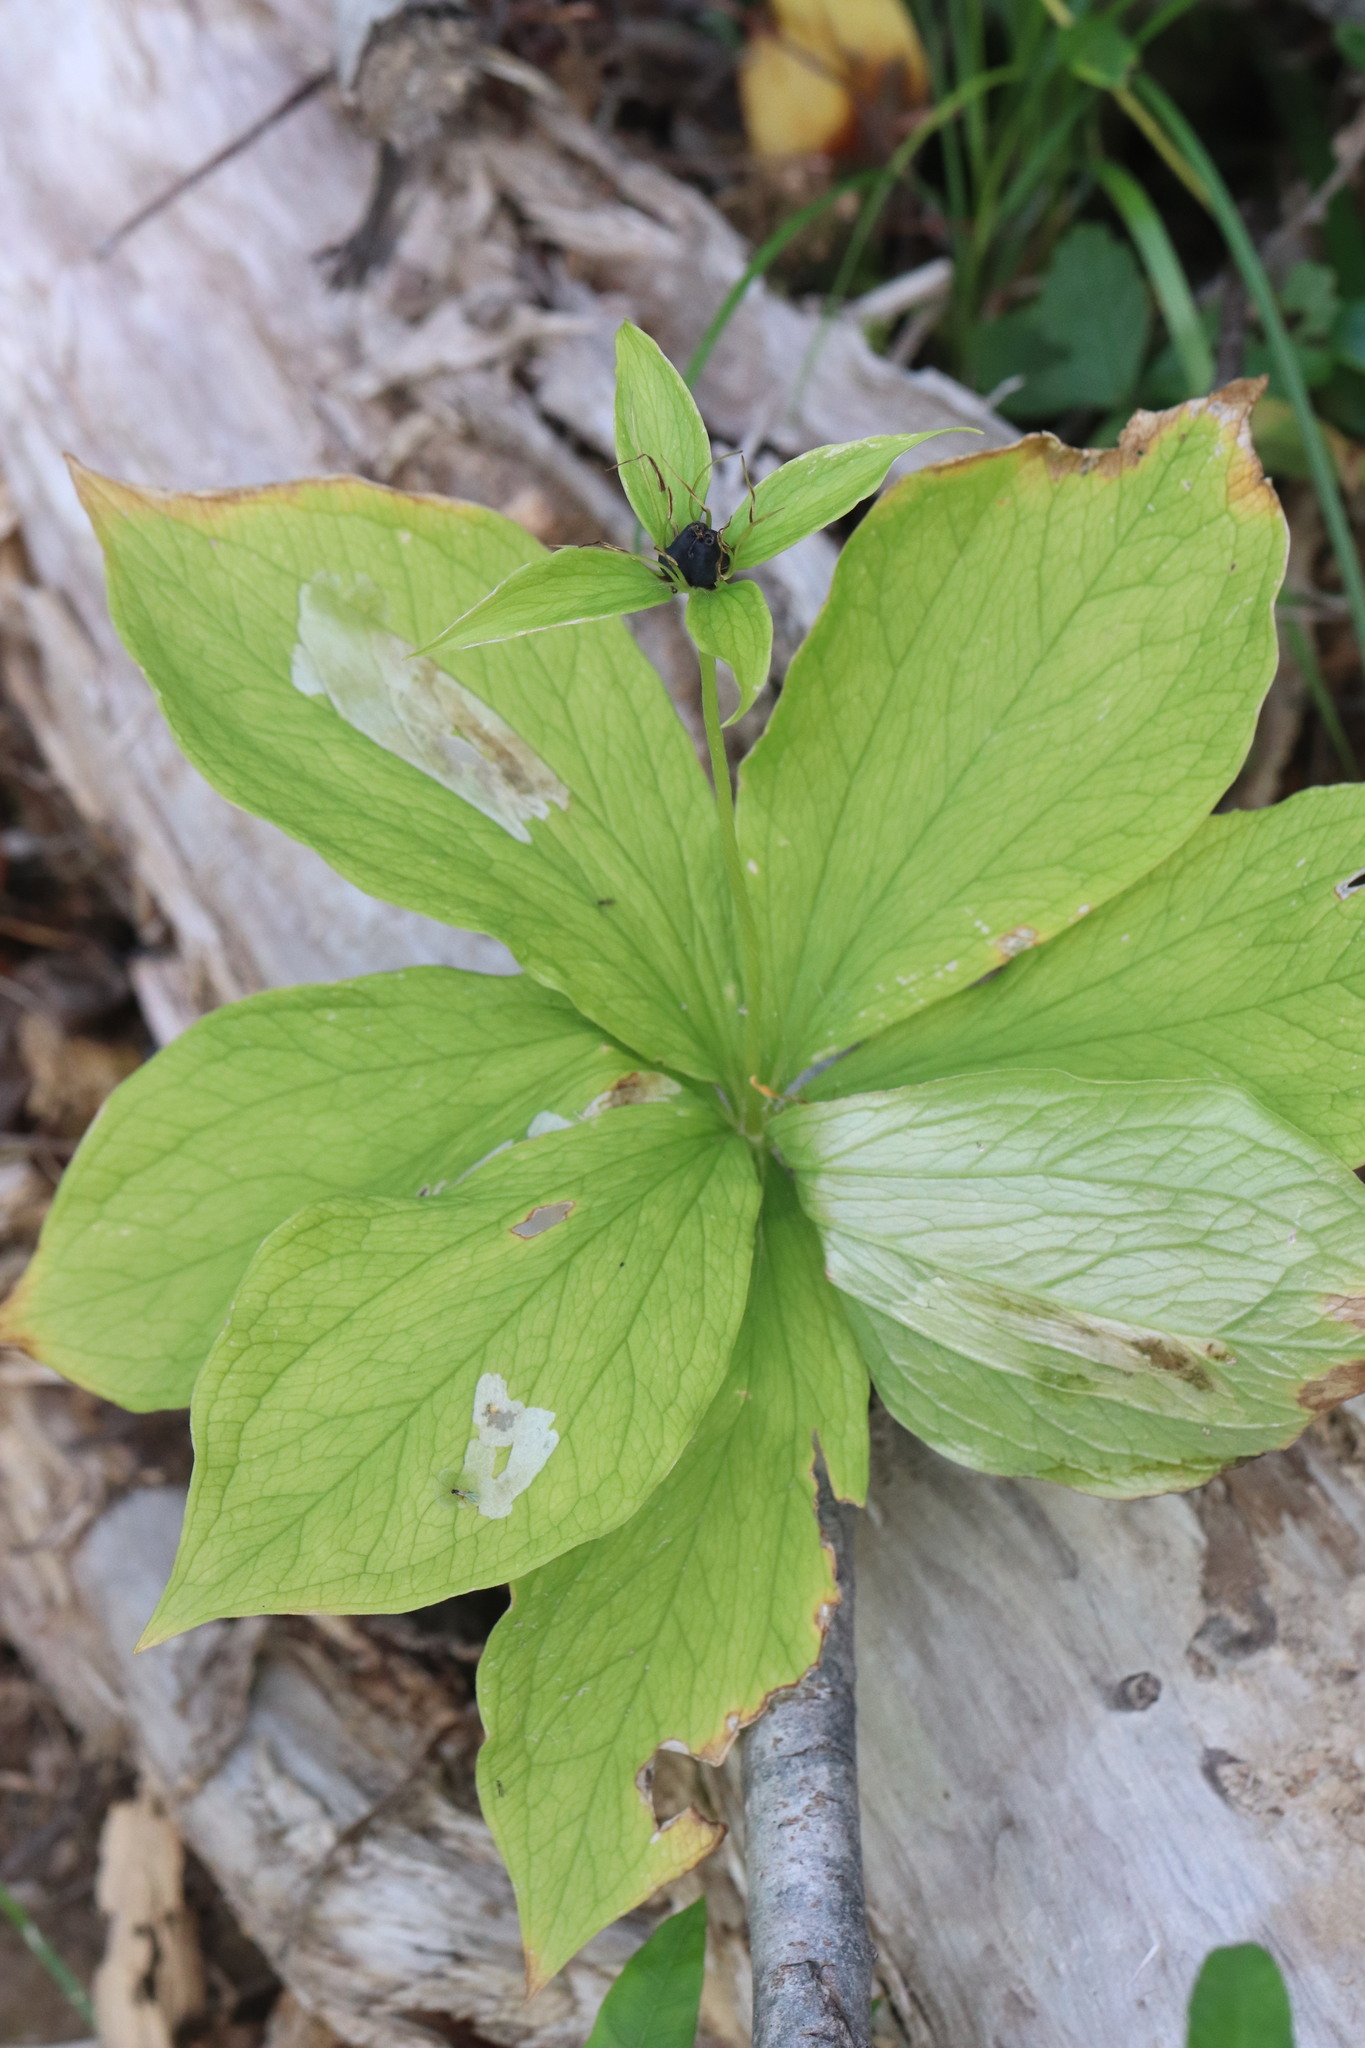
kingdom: Plantae
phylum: Tracheophyta
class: Liliopsida
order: Liliales
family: Melanthiaceae
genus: Paris
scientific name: Paris quadrifolia
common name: Herb-paris
